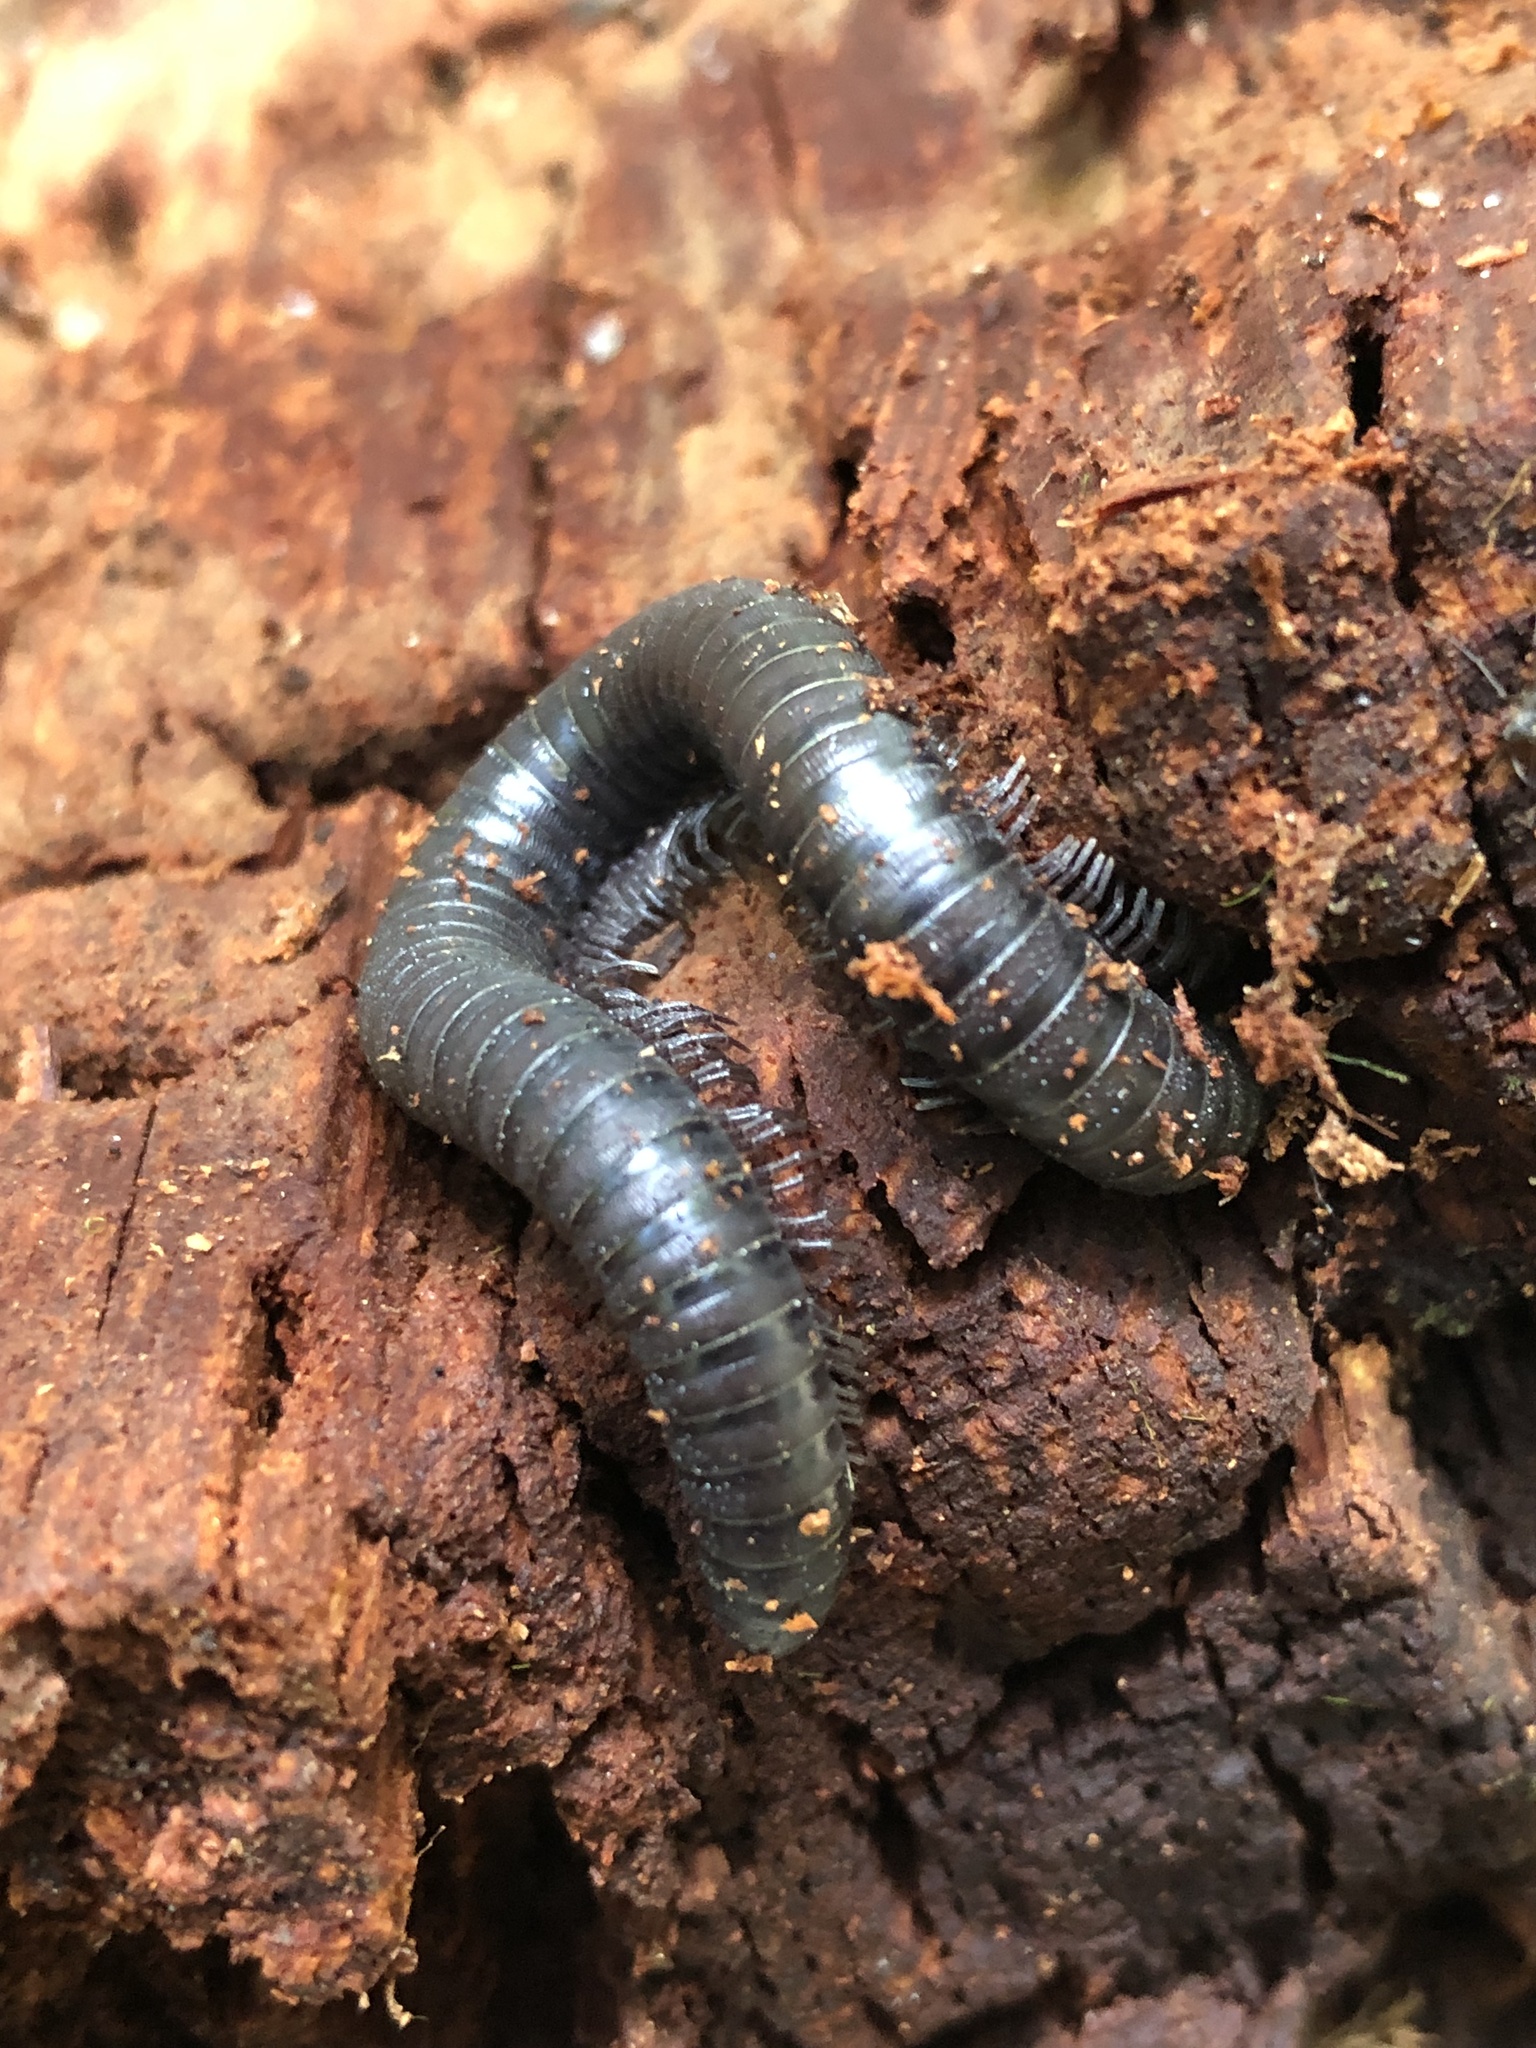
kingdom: Animalia
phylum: Arthropoda
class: Diplopoda
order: Spirobolida
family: Spirobolidae
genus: Tylobolus
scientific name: Tylobolus uncigerus
